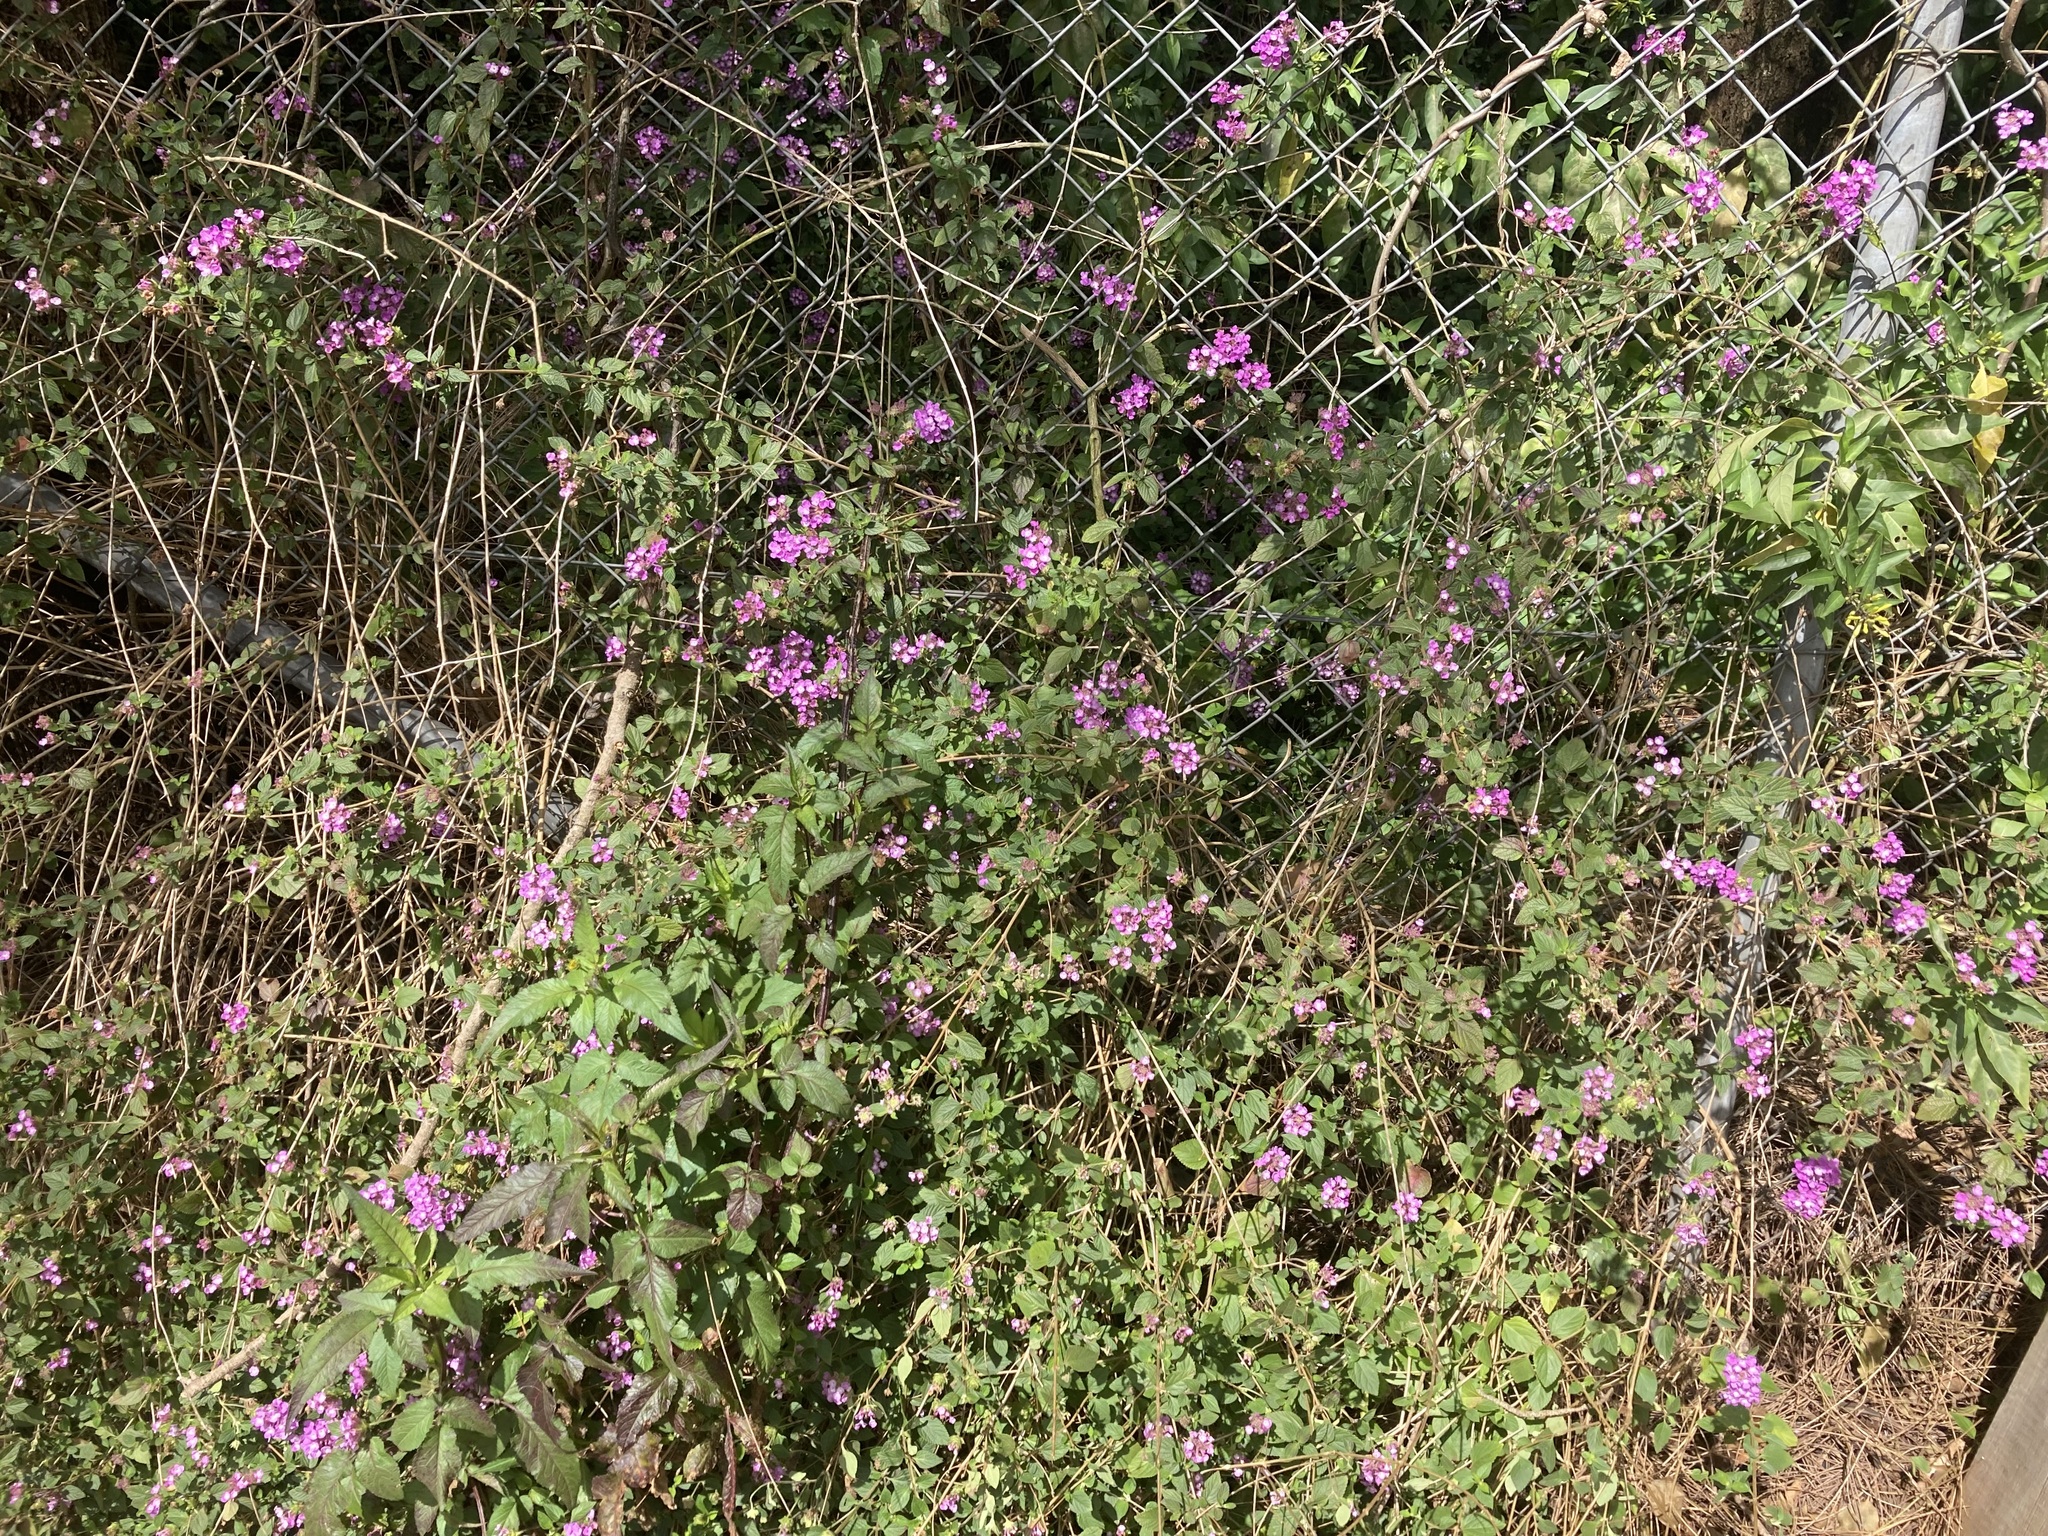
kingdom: Plantae
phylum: Tracheophyta
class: Magnoliopsida
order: Lamiales
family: Verbenaceae
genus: Lantana
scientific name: Lantana montevidensis
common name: Trailing shrubverbena
